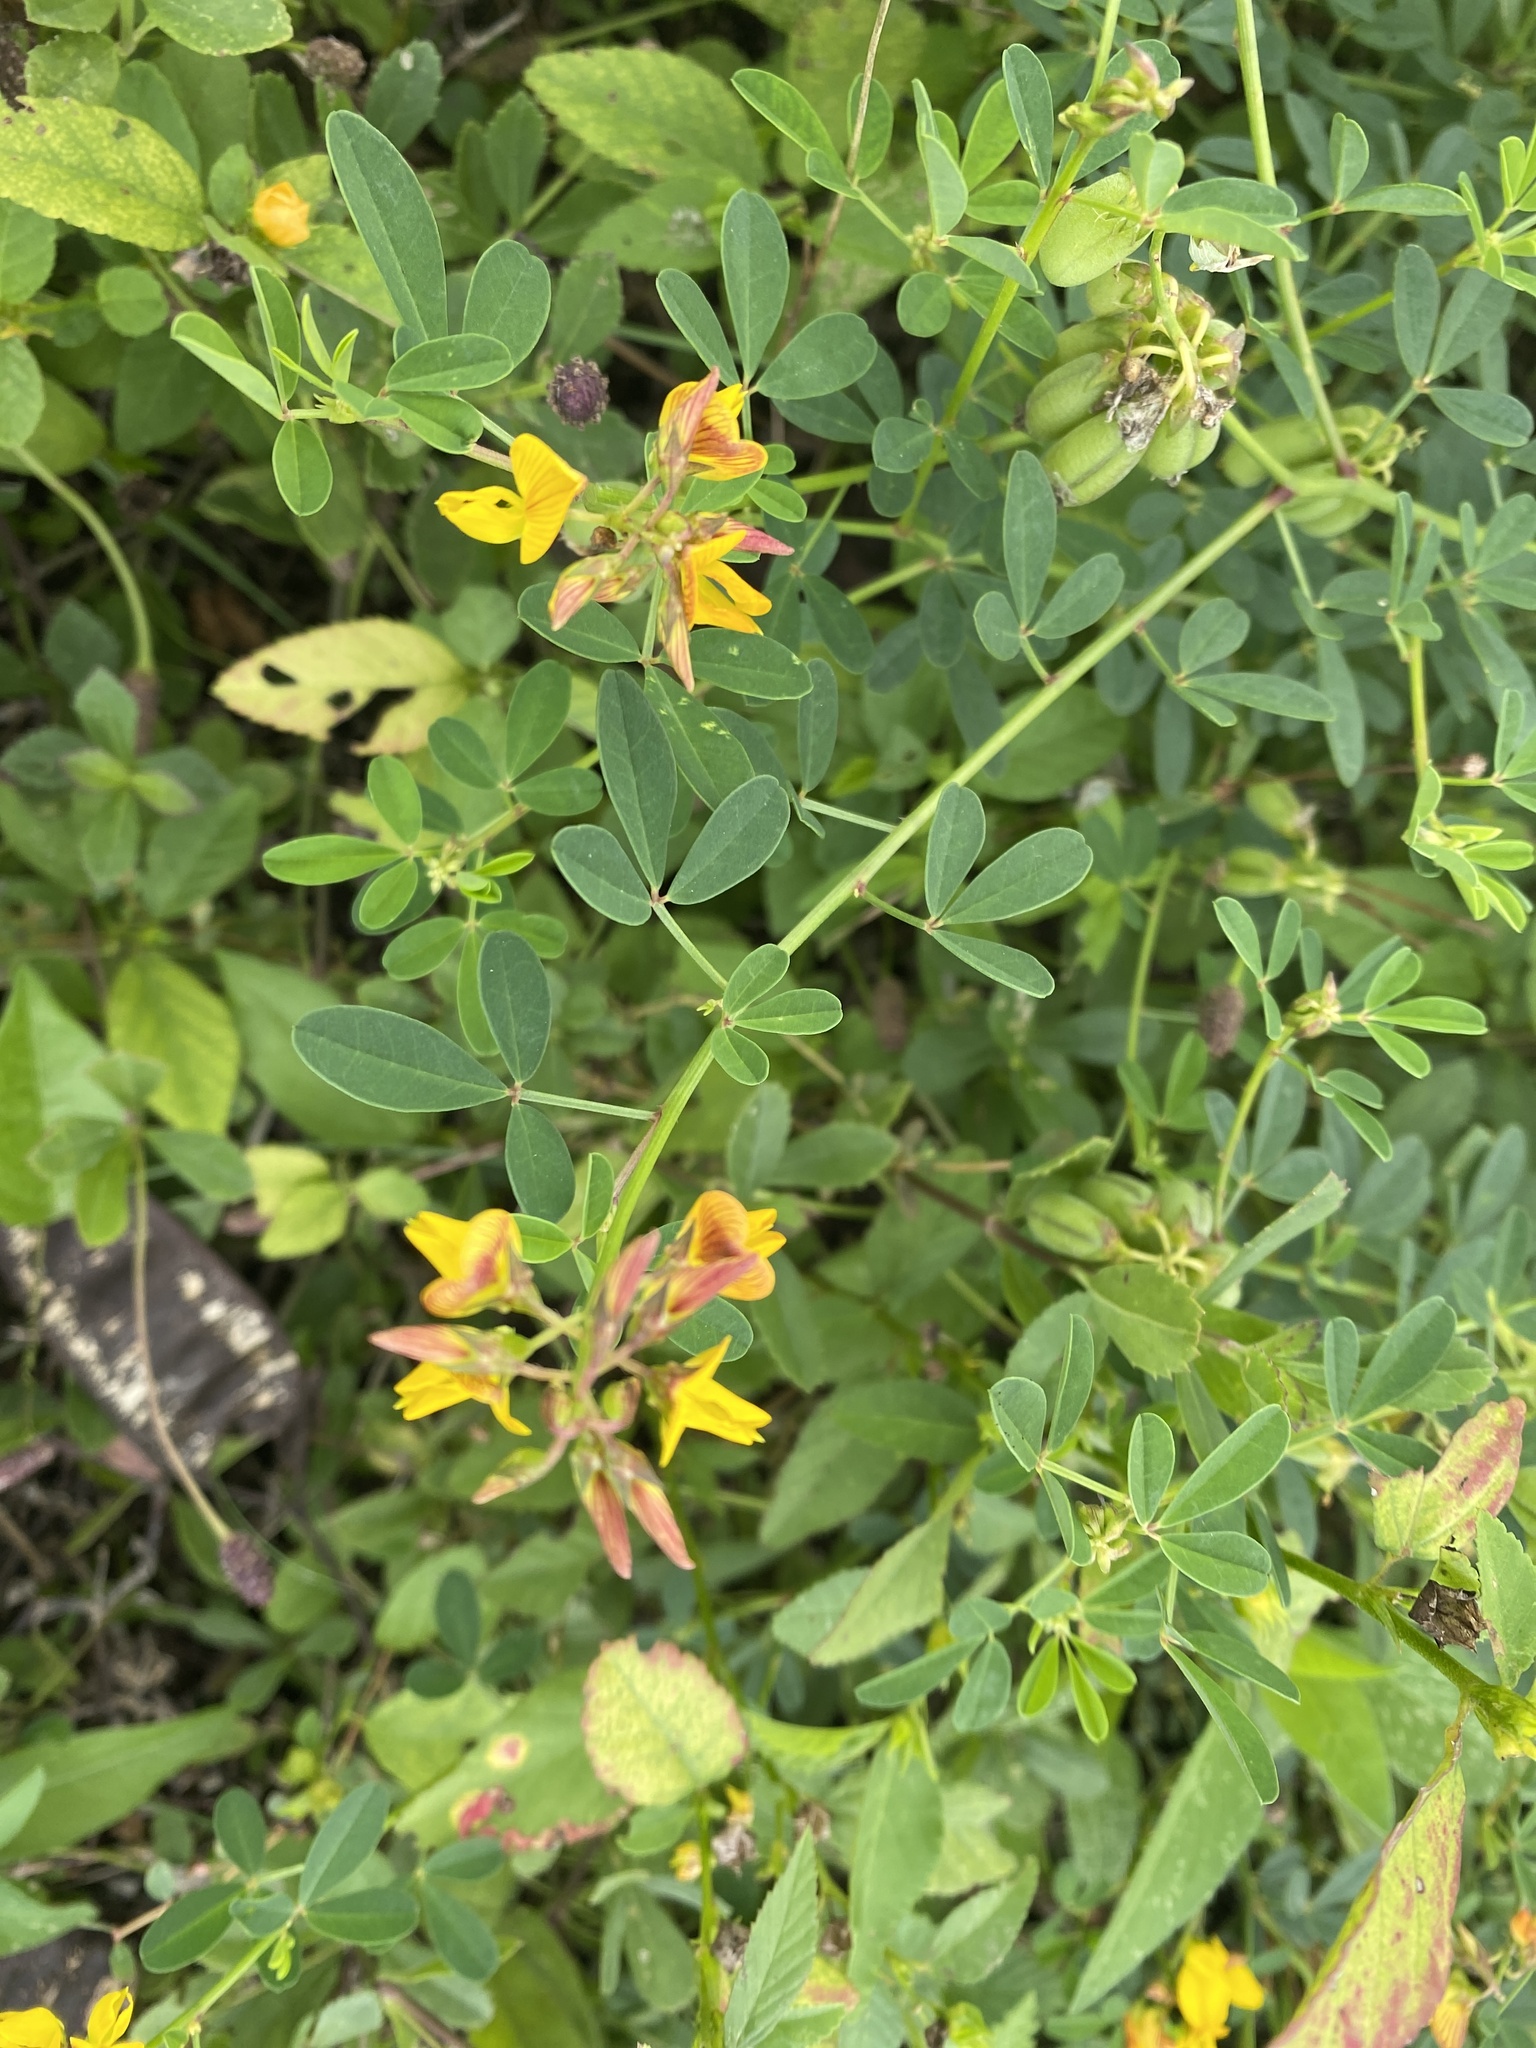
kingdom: Plantae
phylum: Tracheophyta
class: Magnoliopsida
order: Fabales
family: Fabaceae
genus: Crotalaria
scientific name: Crotalaria pumila
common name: Low rattlebox
